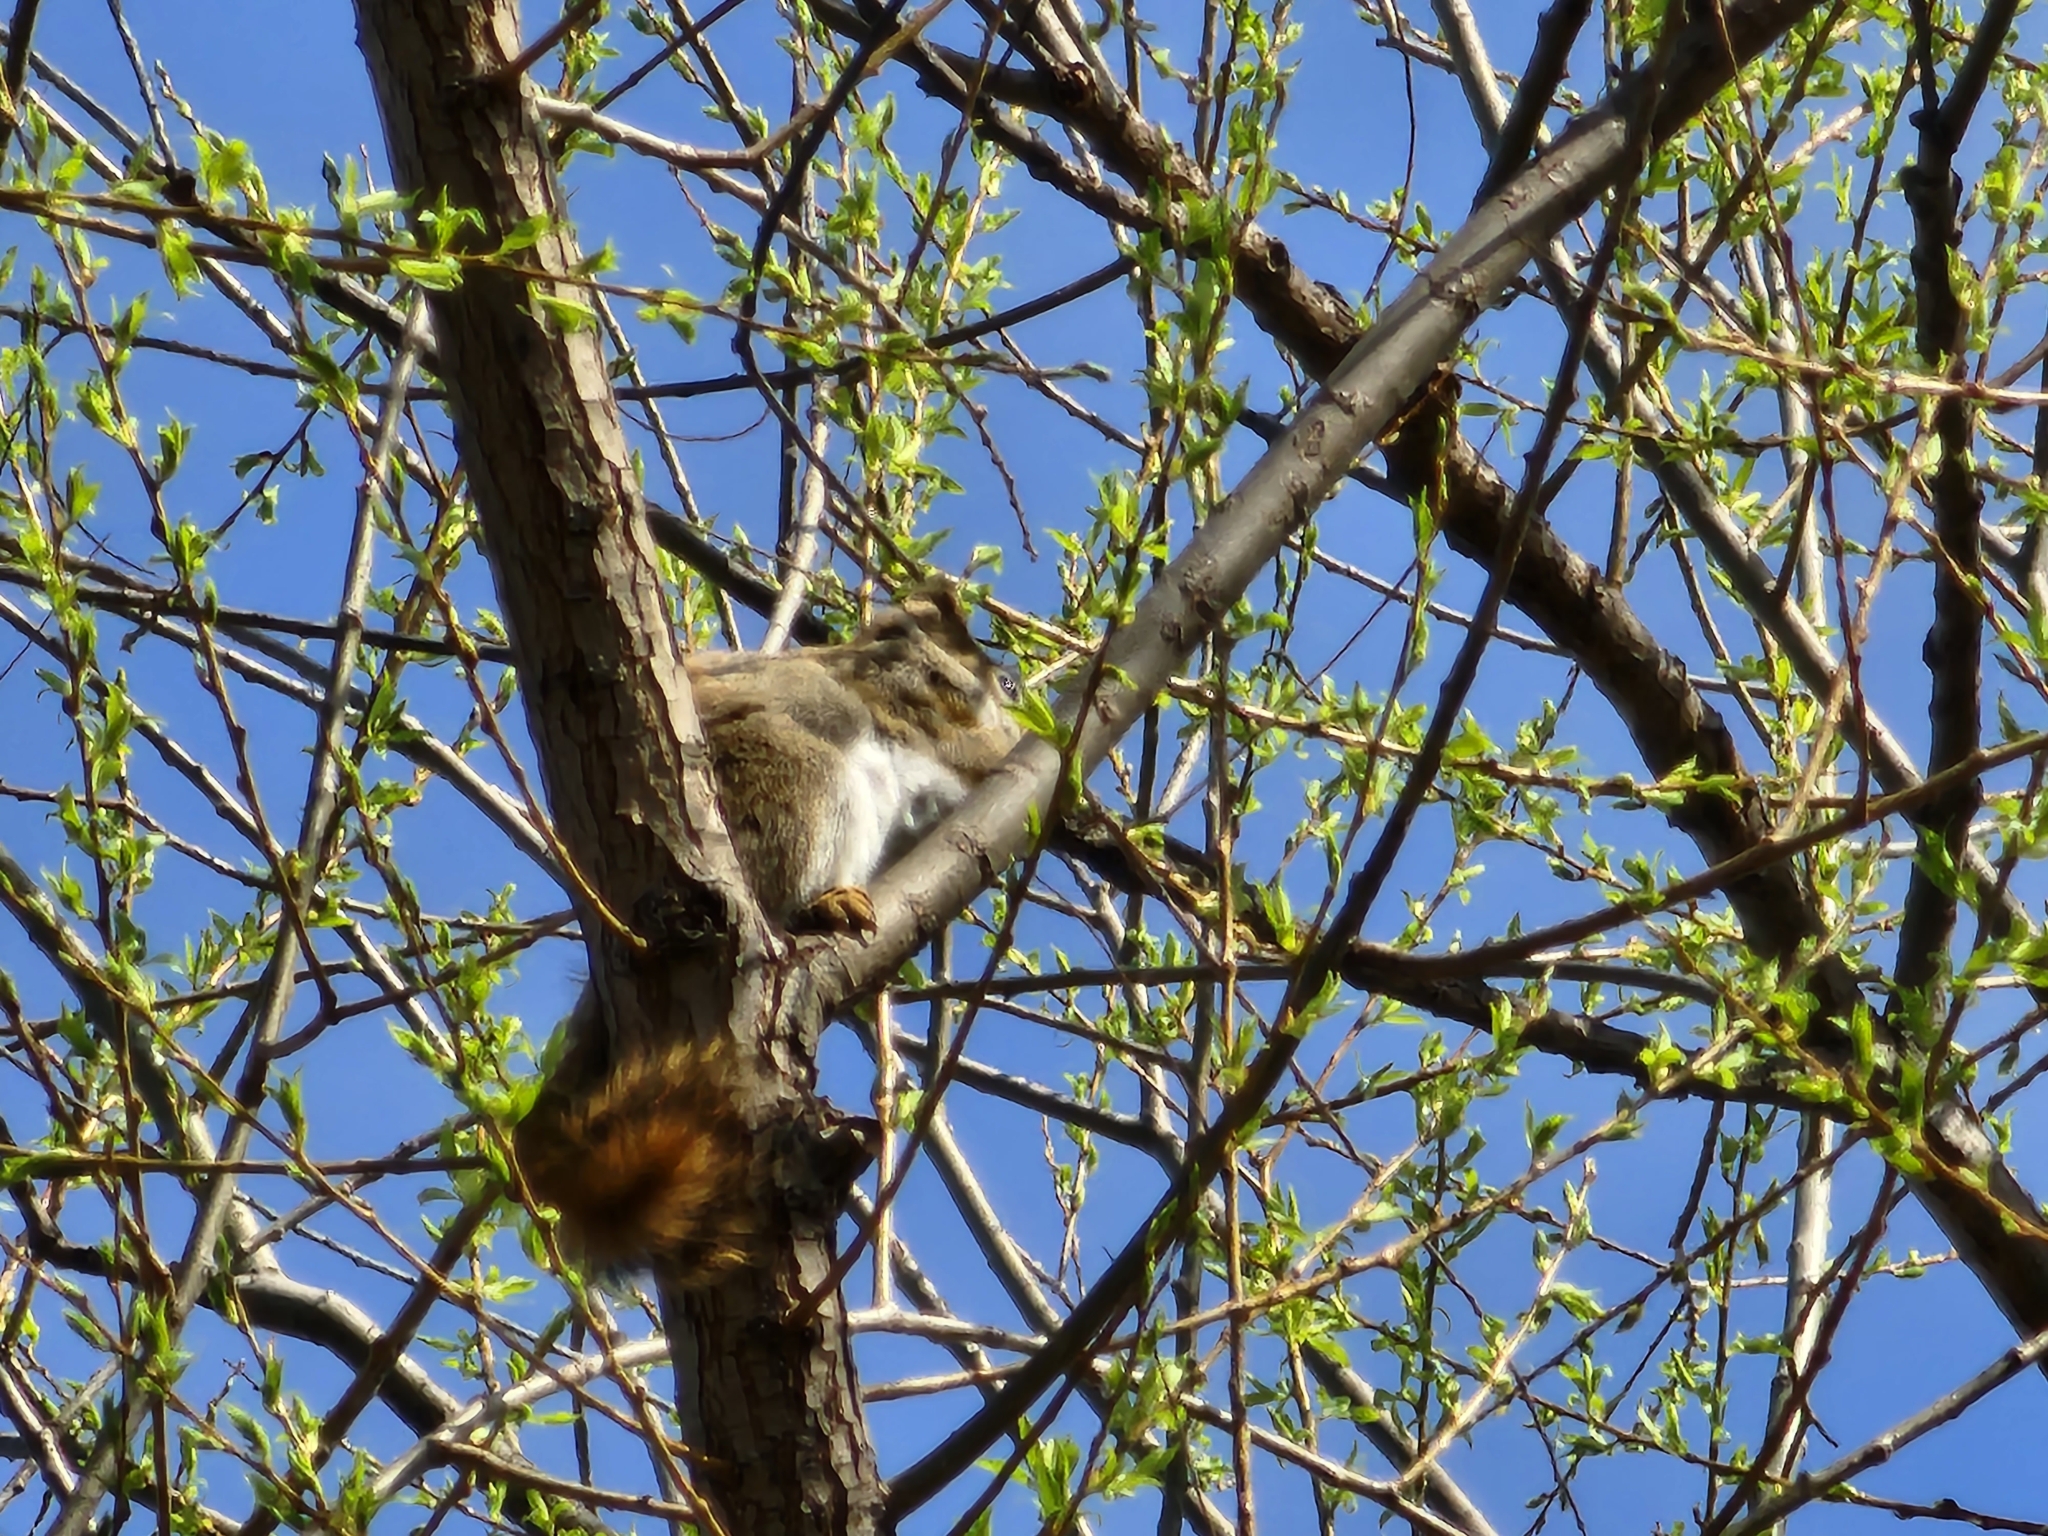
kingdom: Animalia
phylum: Chordata
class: Mammalia
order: Rodentia
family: Sciuridae
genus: Tamiasciurus
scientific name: Tamiasciurus hudsonicus
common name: Red squirrel
